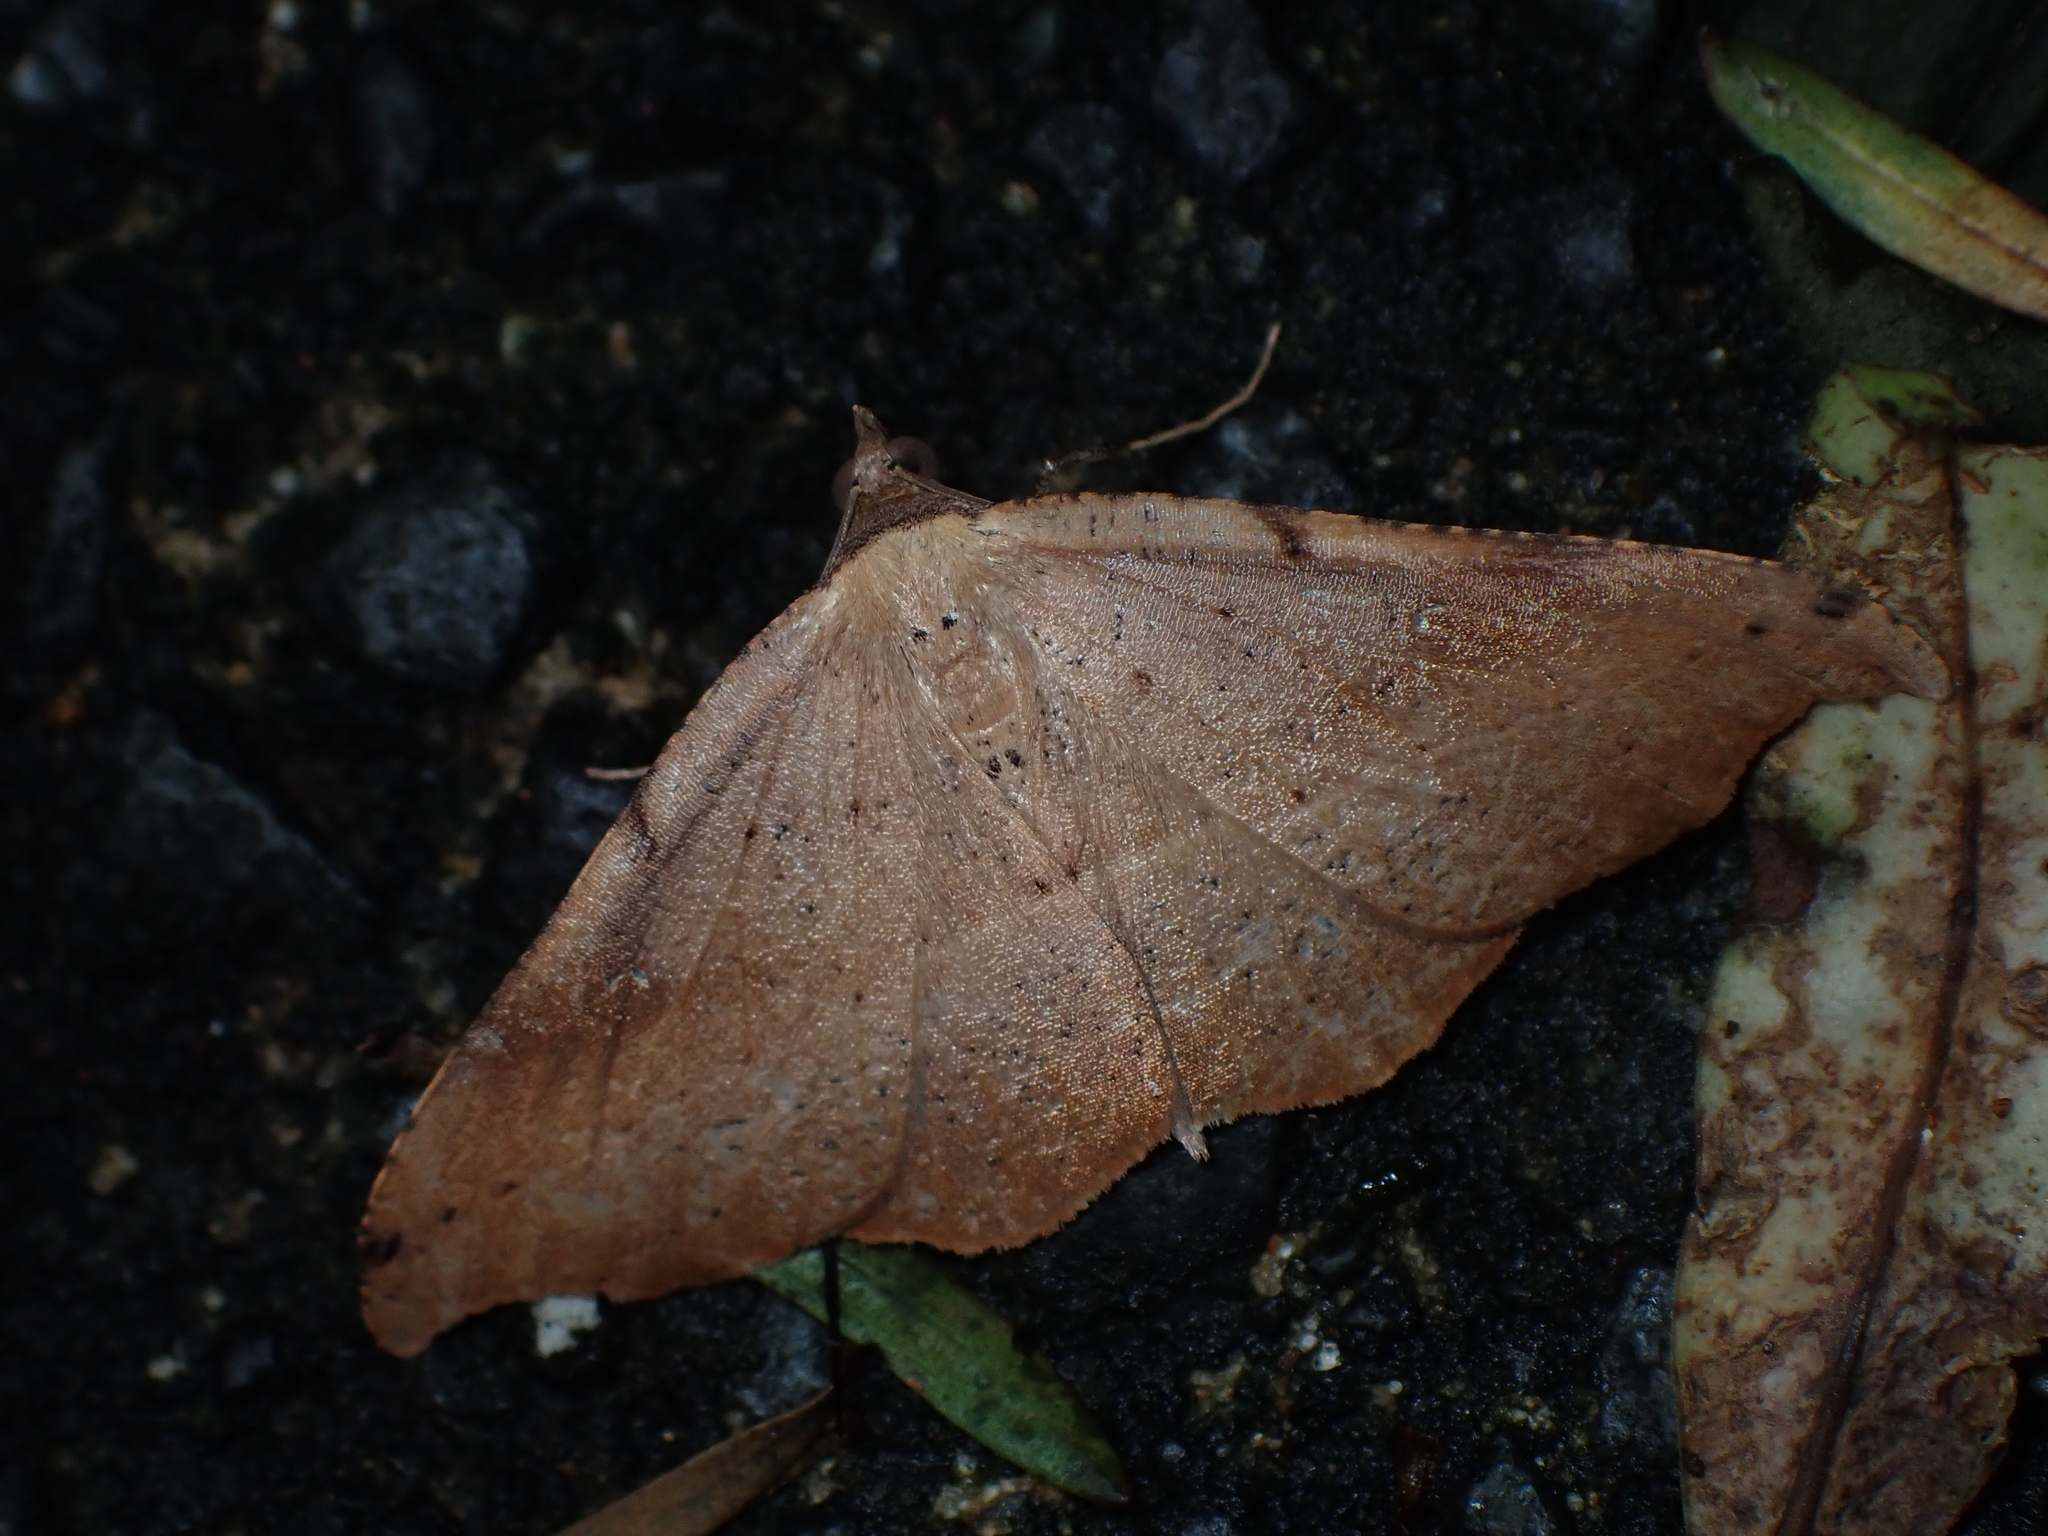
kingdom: Animalia
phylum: Arthropoda
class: Insecta
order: Lepidoptera
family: Geometridae
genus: Sarisa
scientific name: Sarisa muriferata
